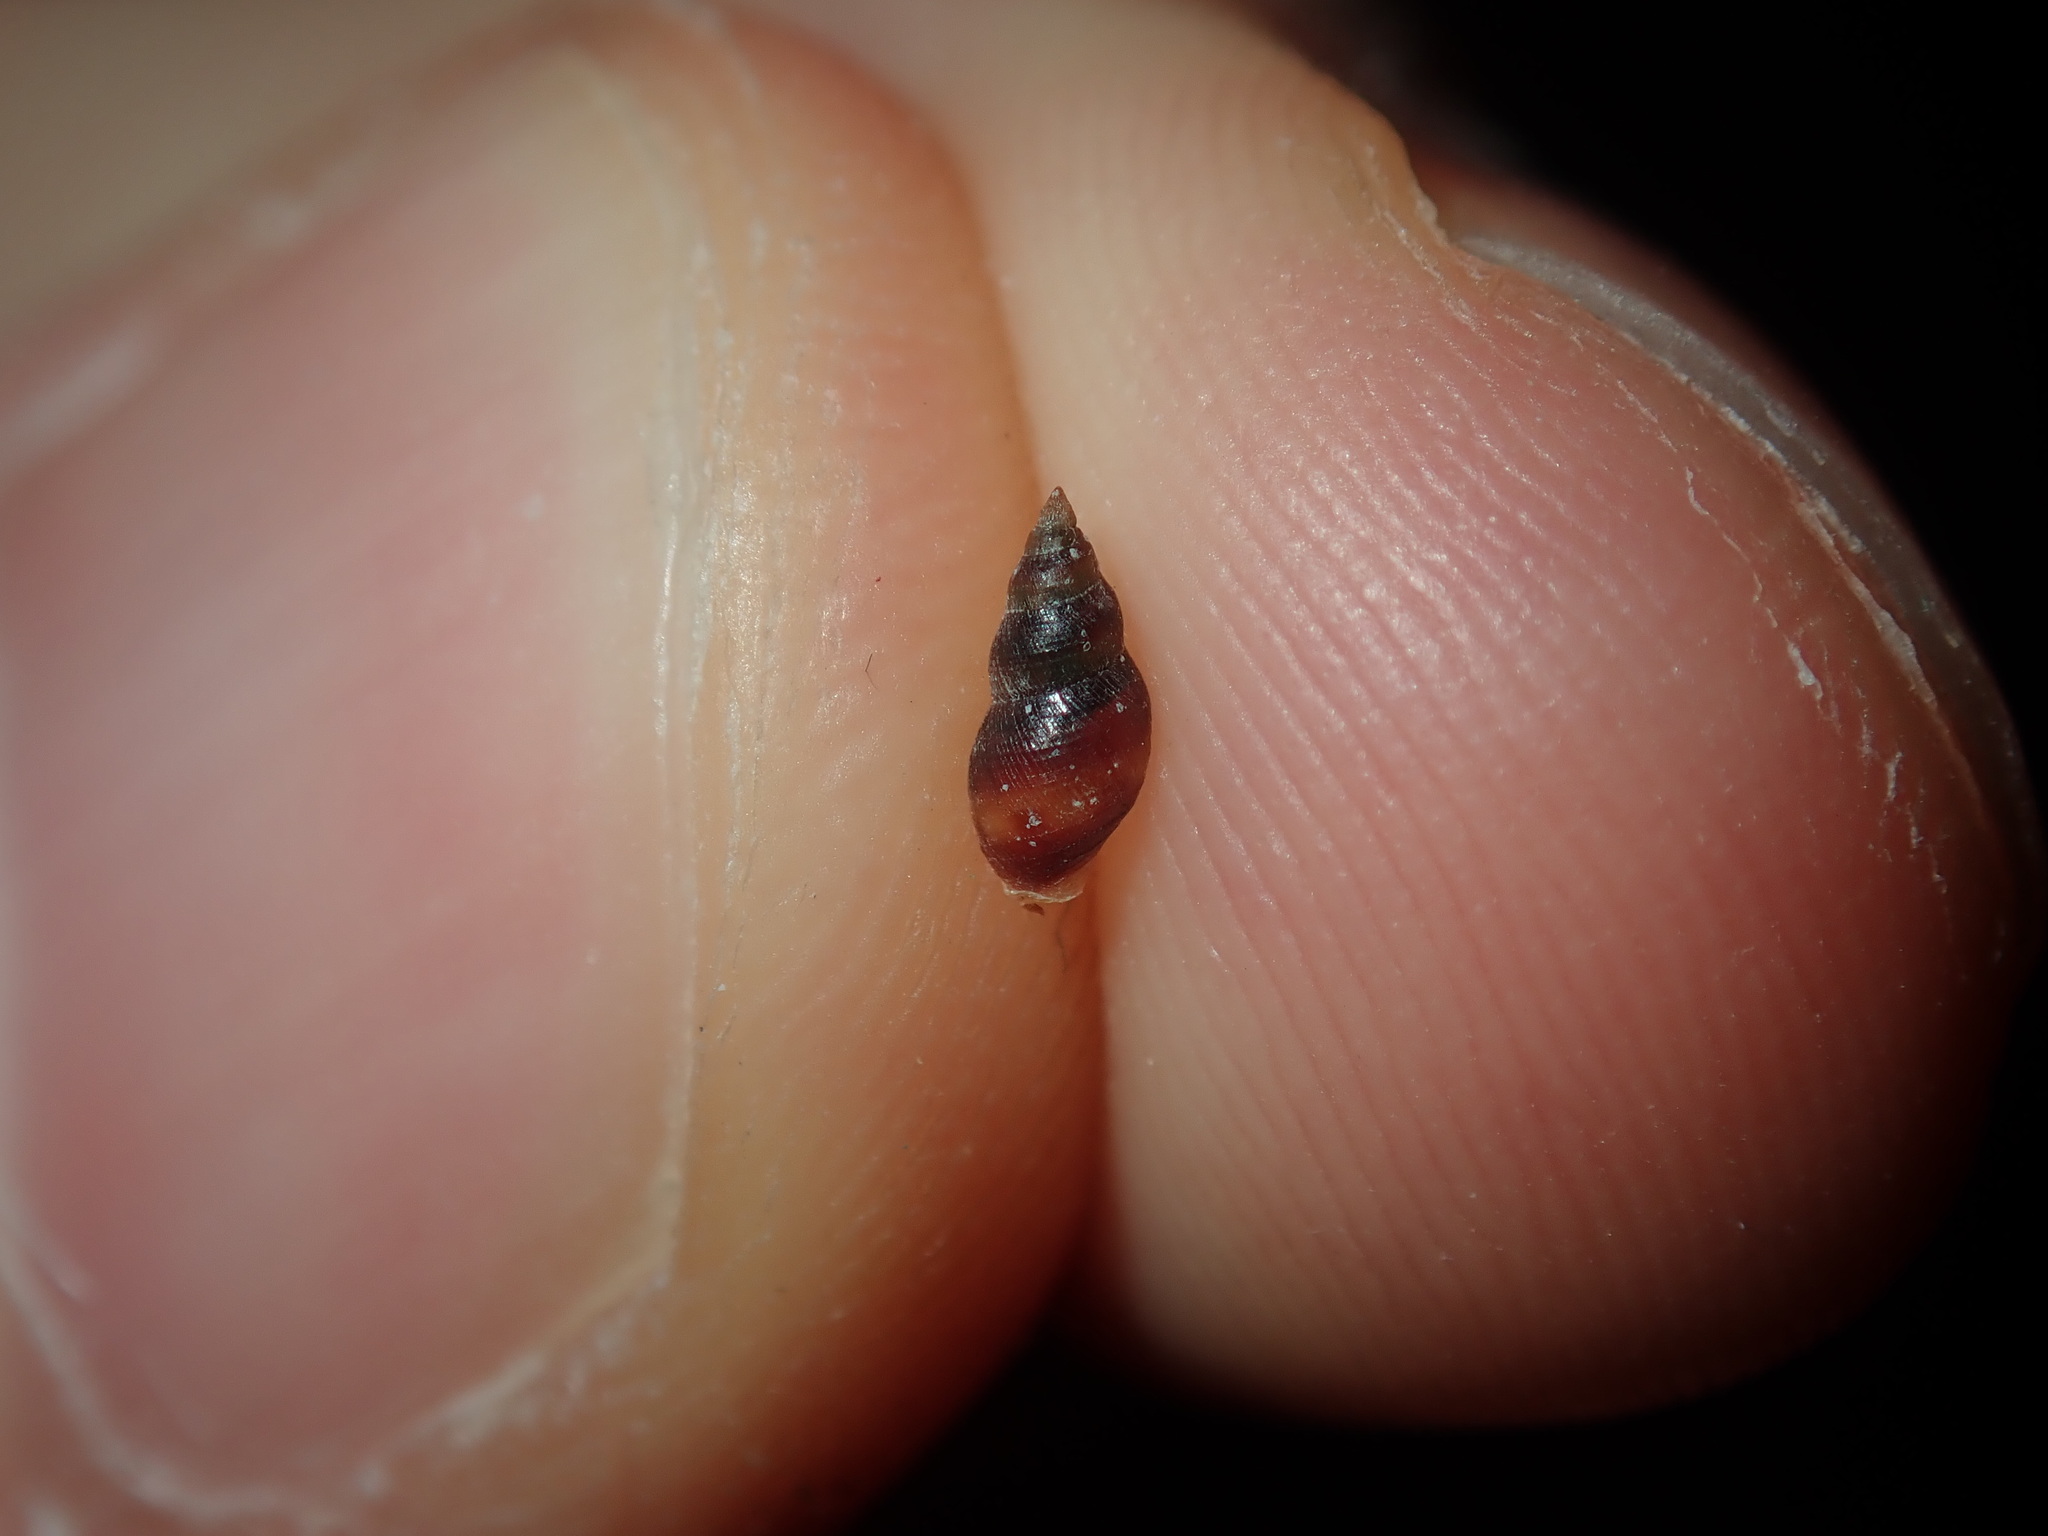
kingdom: Animalia
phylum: Mollusca
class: Gastropoda
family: Litiopidae
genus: Litiopa
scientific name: Litiopa limnophysa
